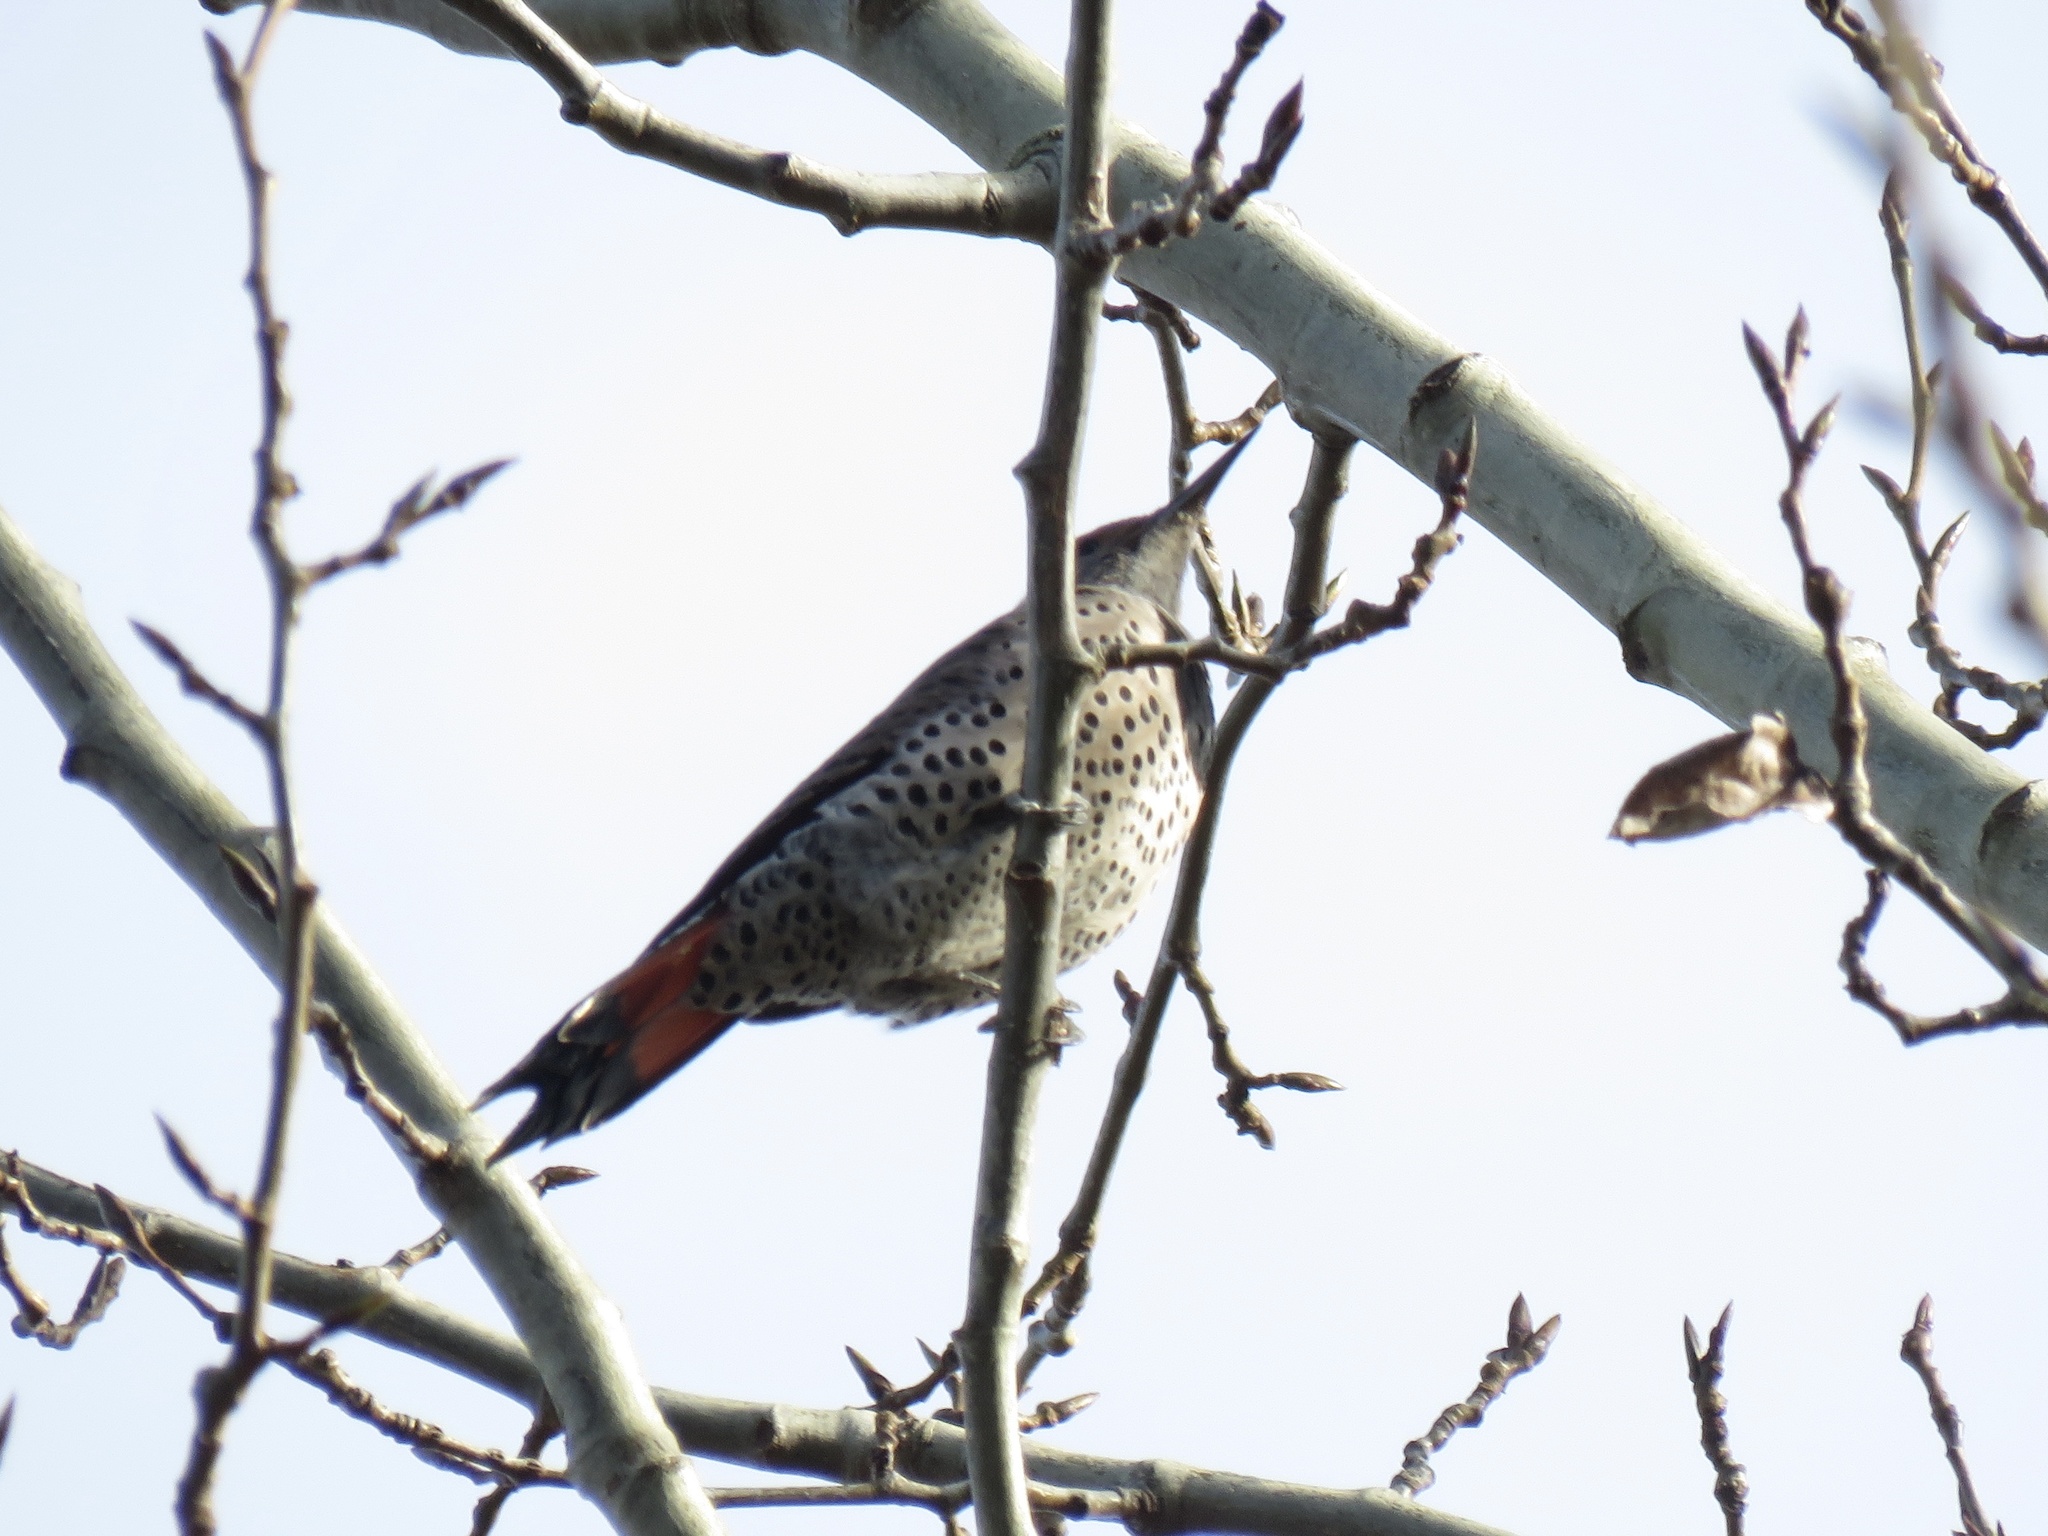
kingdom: Animalia
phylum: Chordata
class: Aves
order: Piciformes
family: Picidae
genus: Colaptes
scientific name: Colaptes auratus
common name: Northern flicker
